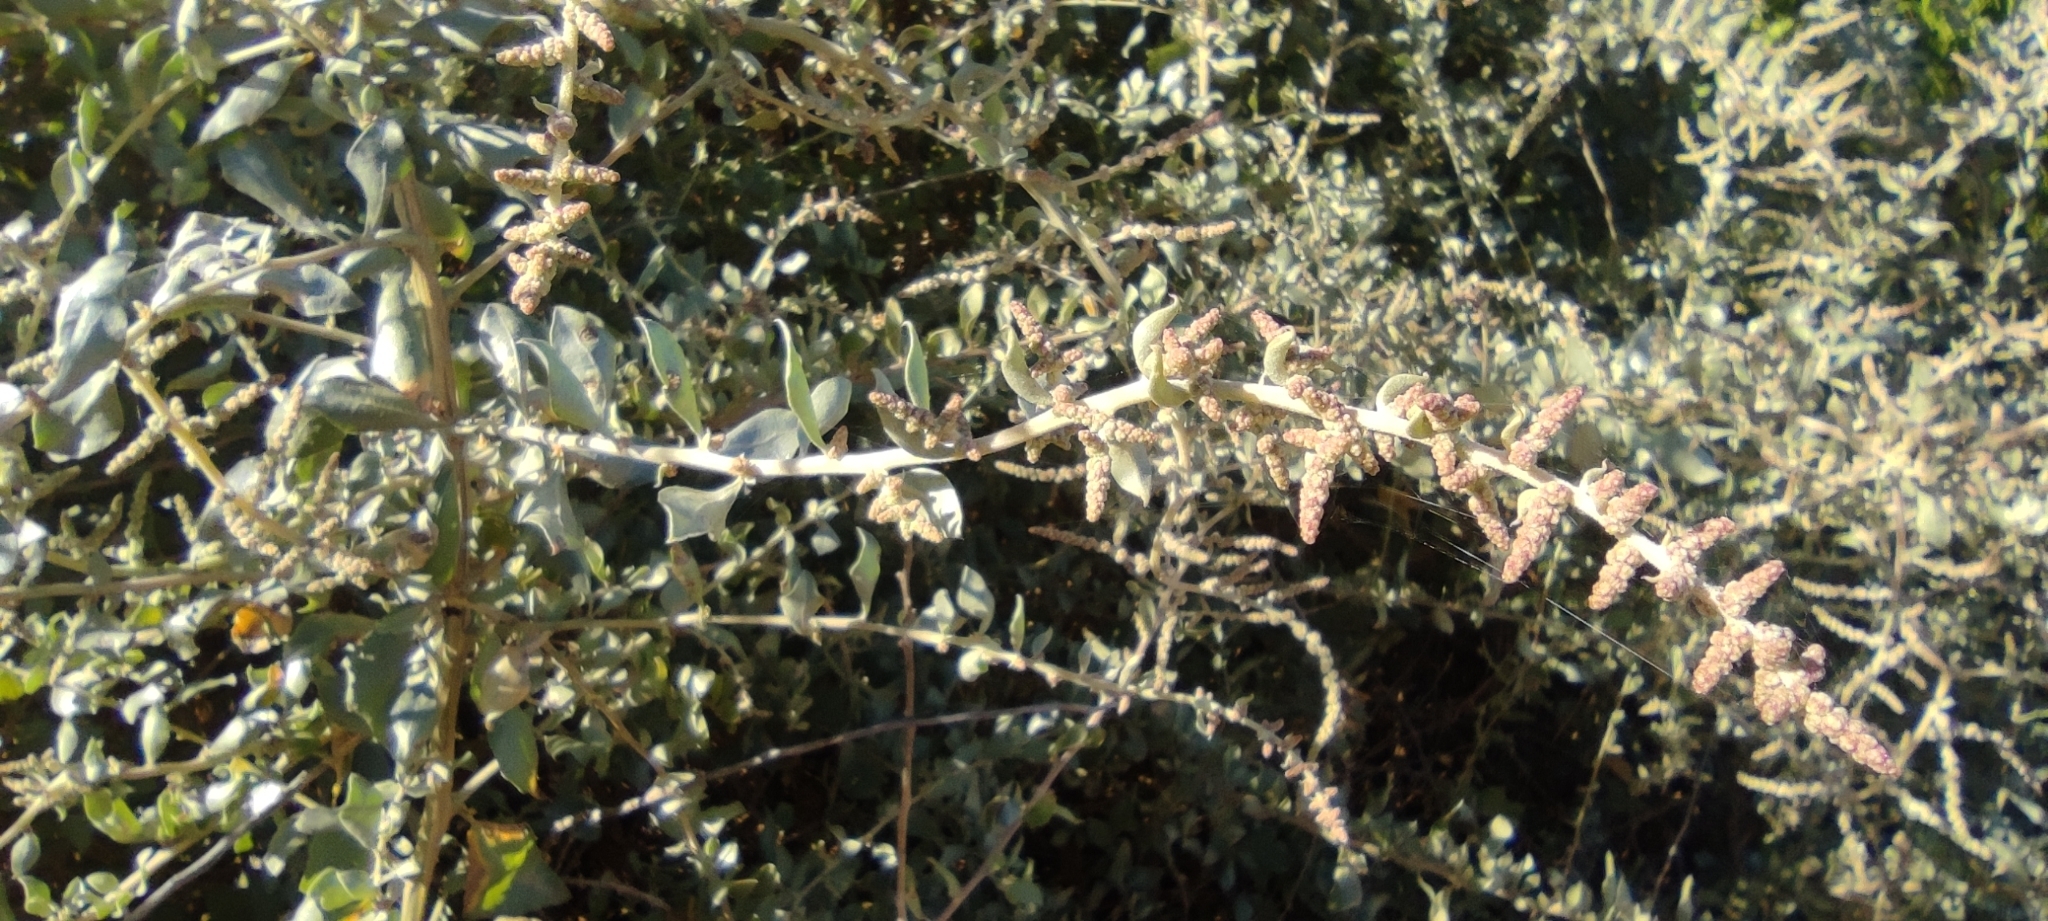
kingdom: Plantae
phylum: Tracheophyta
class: Magnoliopsida
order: Caryophyllales
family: Amaranthaceae
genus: Atriplex
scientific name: Atriplex halimus
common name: Shrubby orache
